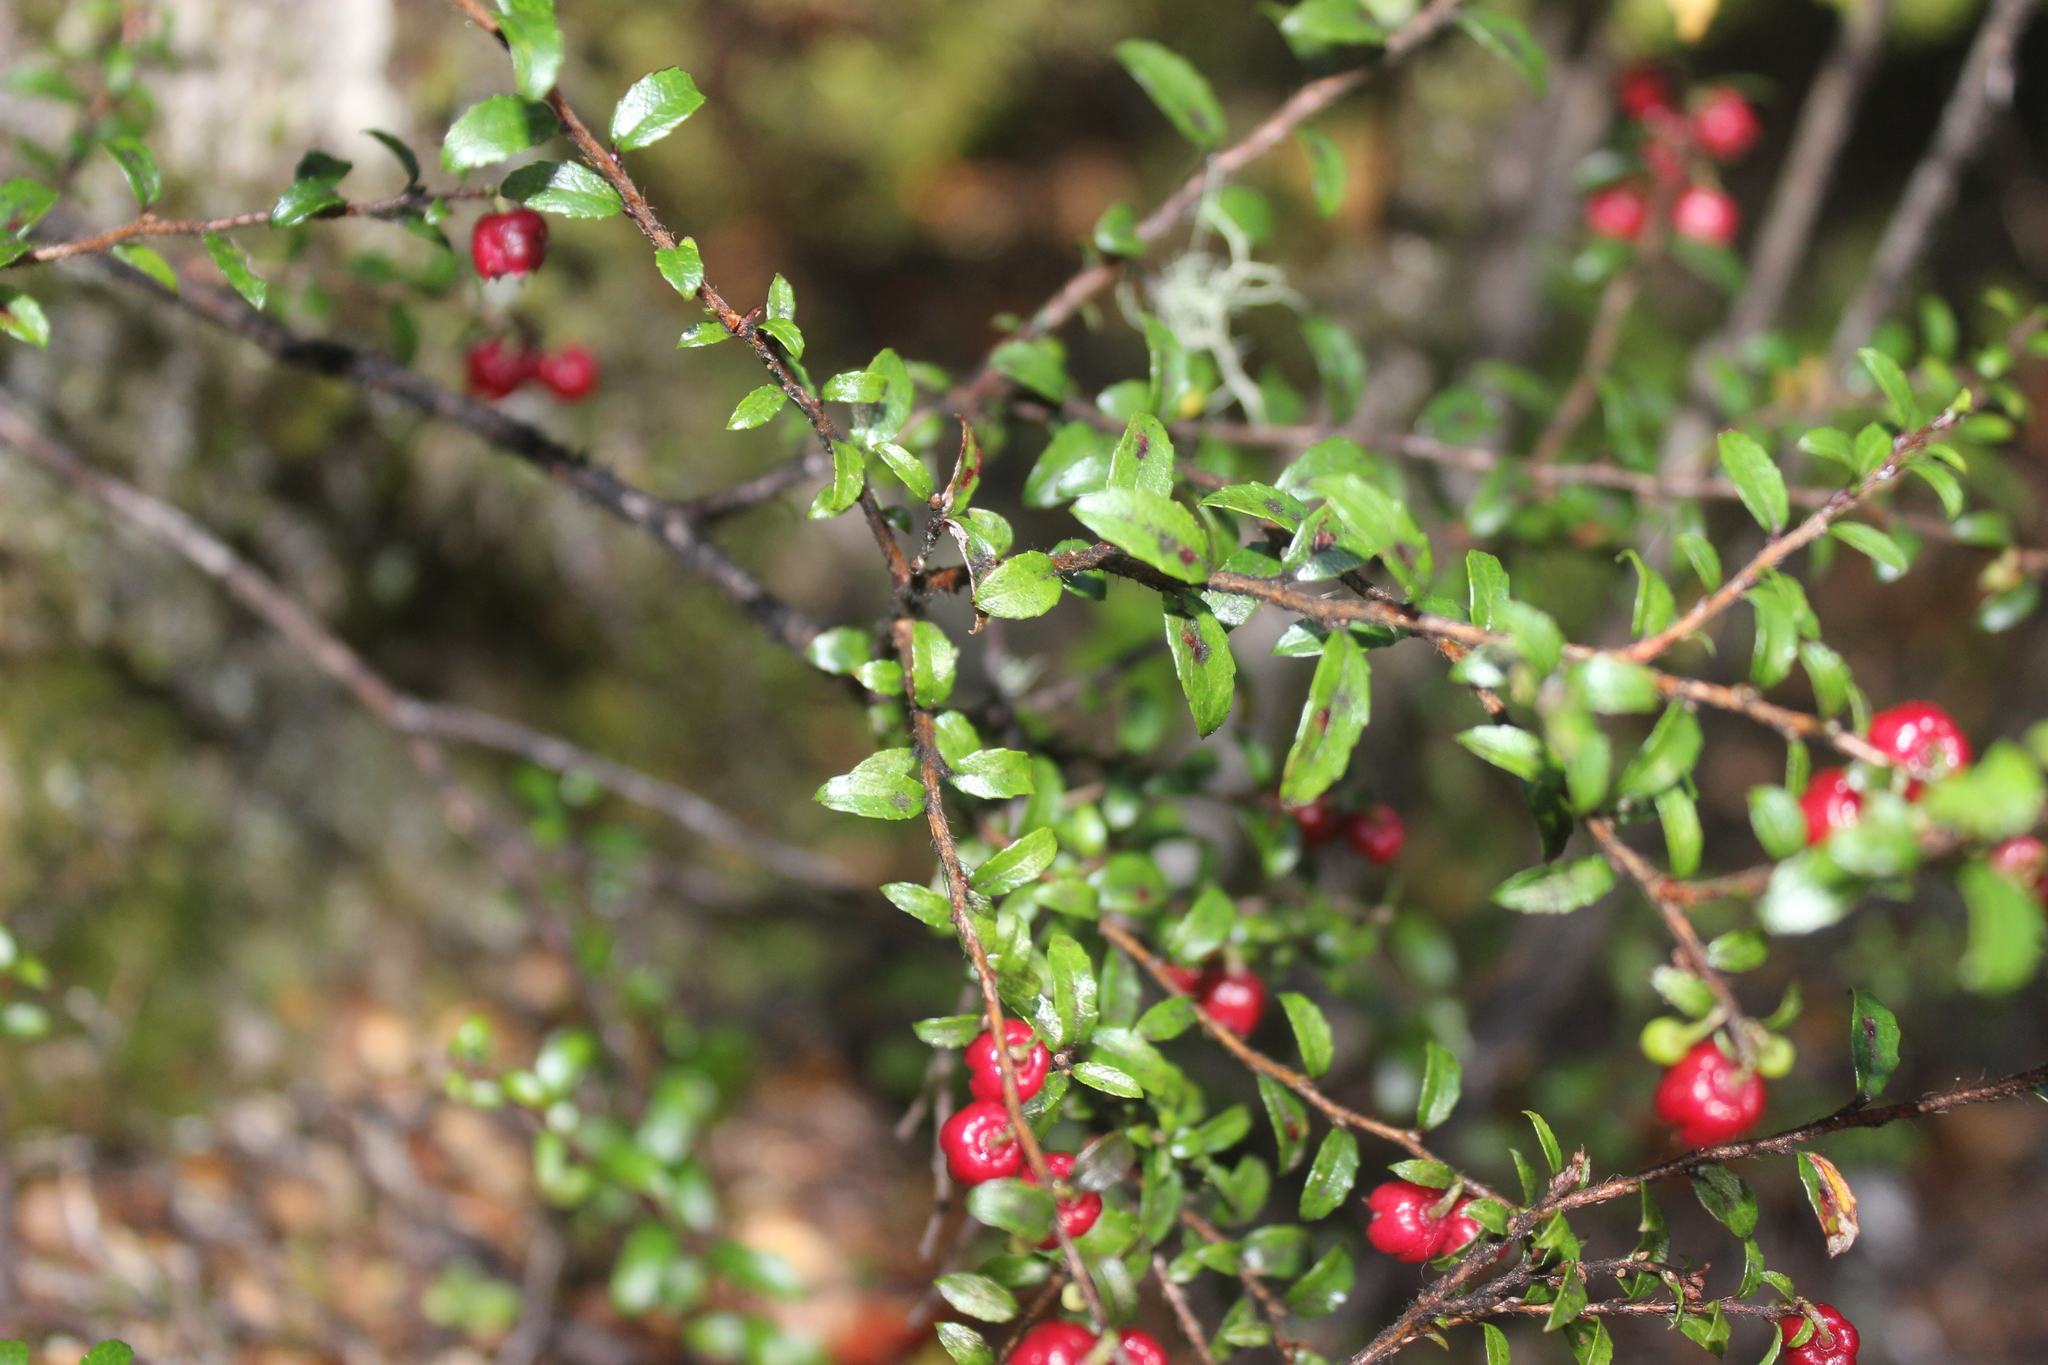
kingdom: Plantae
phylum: Tracheophyta
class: Magnoliopsida
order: Ericales
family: Ericaceae
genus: Gaultheria
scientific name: Gaultheria macrostigma
